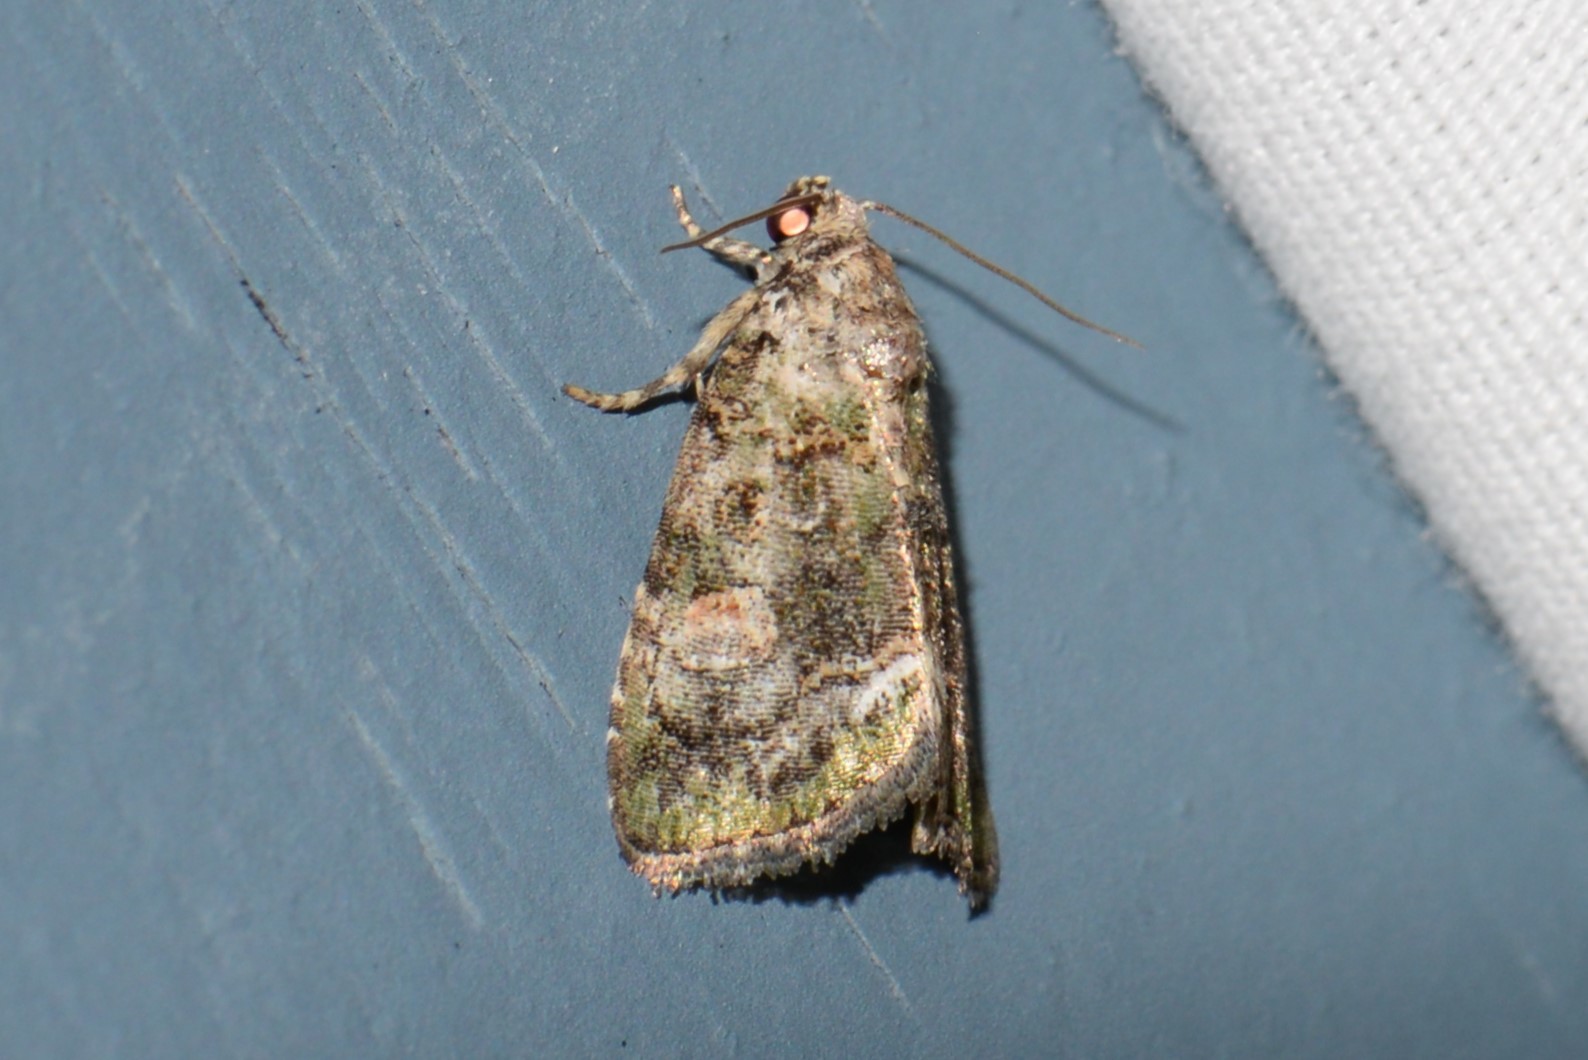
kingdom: Animalia
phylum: Arthropoda
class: Insecta
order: Lepidoptera
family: Noctuidae
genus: Lithacodia
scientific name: Lithacodia musta
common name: Small mossy glyph
